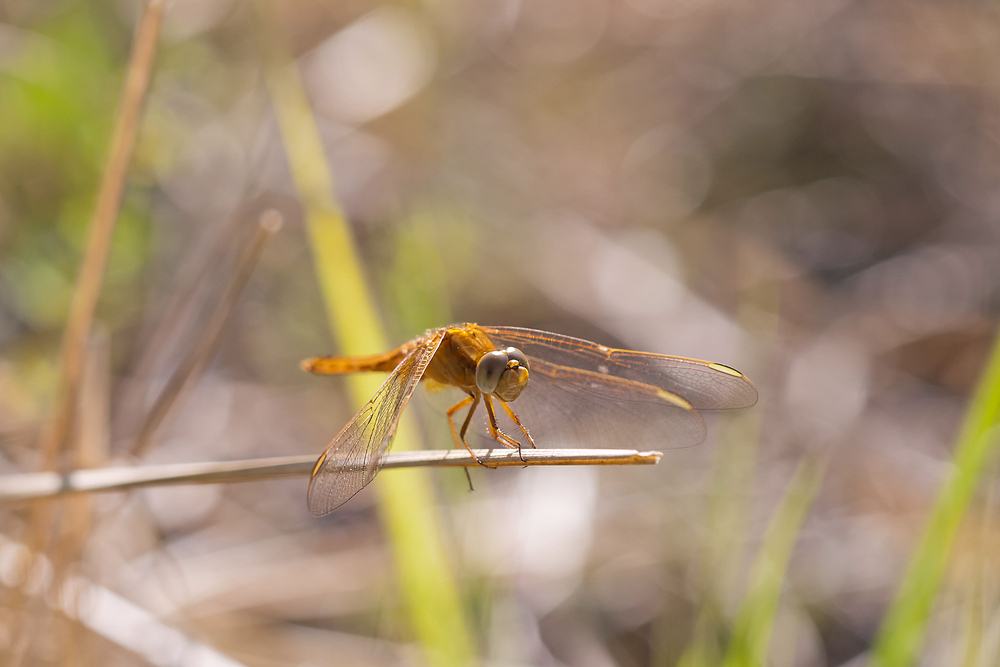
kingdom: Animalia
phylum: Arthropoda
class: Insecta
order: Odonata
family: Libellulidae
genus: Crocothemis
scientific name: Crocothemis erythraea
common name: Scarlet dragonfly
